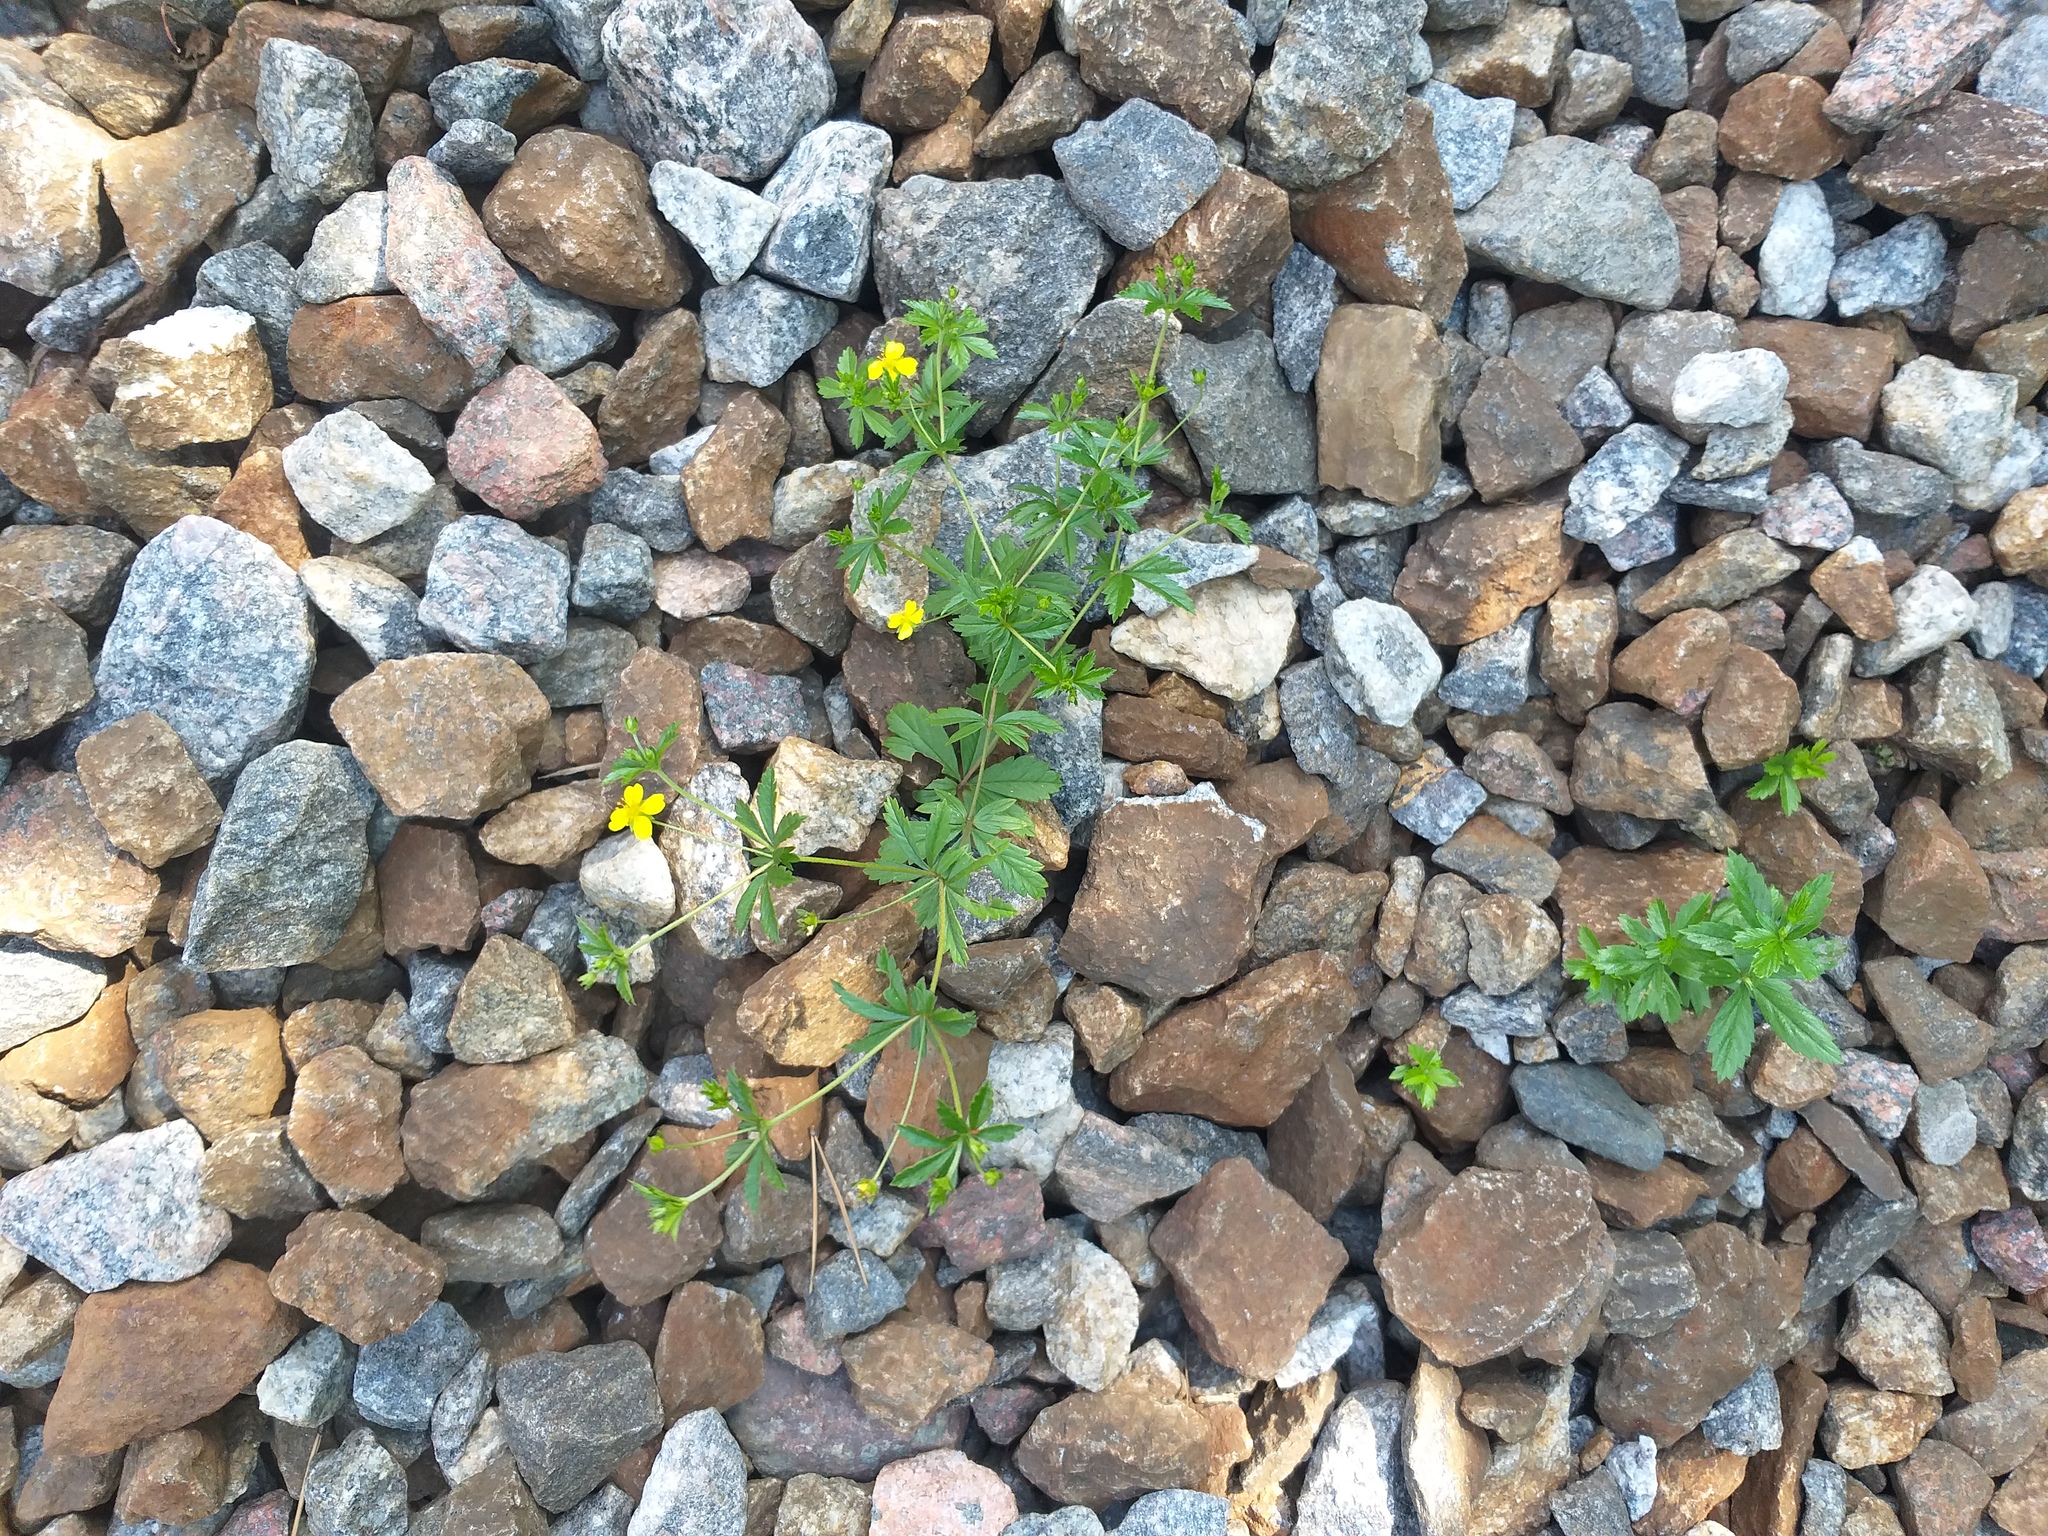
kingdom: Plantae
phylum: Tracheophyta
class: Magnoliopsida
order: Rosales
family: Rosaceae
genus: Potentilla
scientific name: Potentilla erecta
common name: Tormentil
